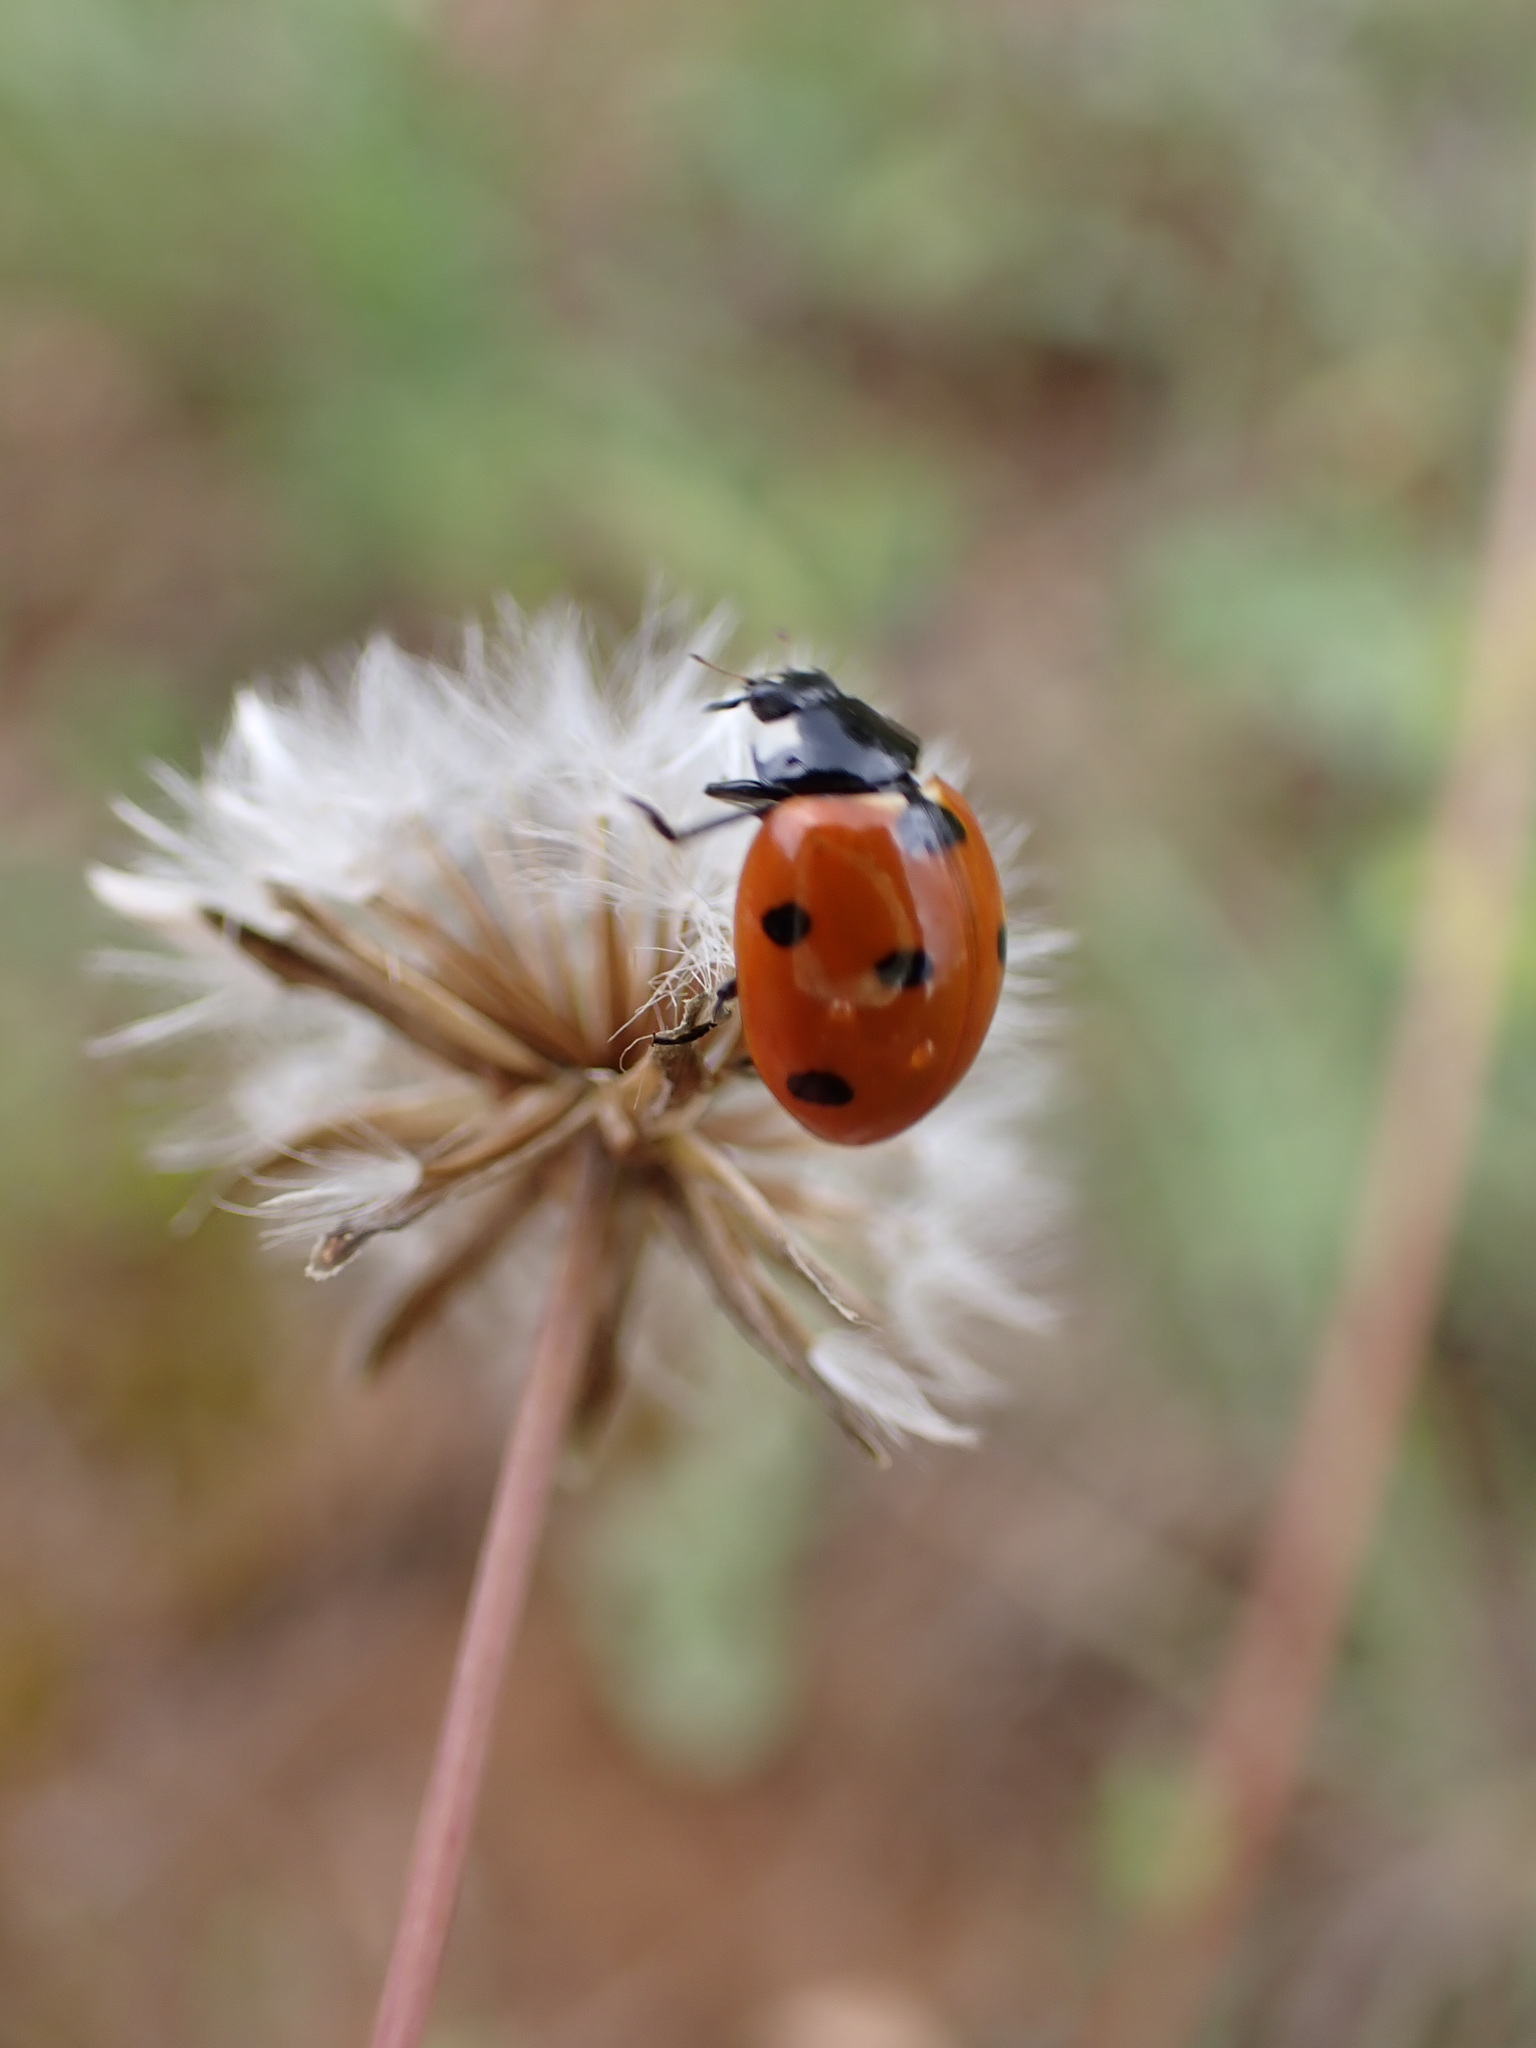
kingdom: Animalia
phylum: Arthropoda
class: Insecta
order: Coleoptera
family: Coccinellidae
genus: Coccinella
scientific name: Coccinella septempunctata
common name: Sevenspotted lady beetle
